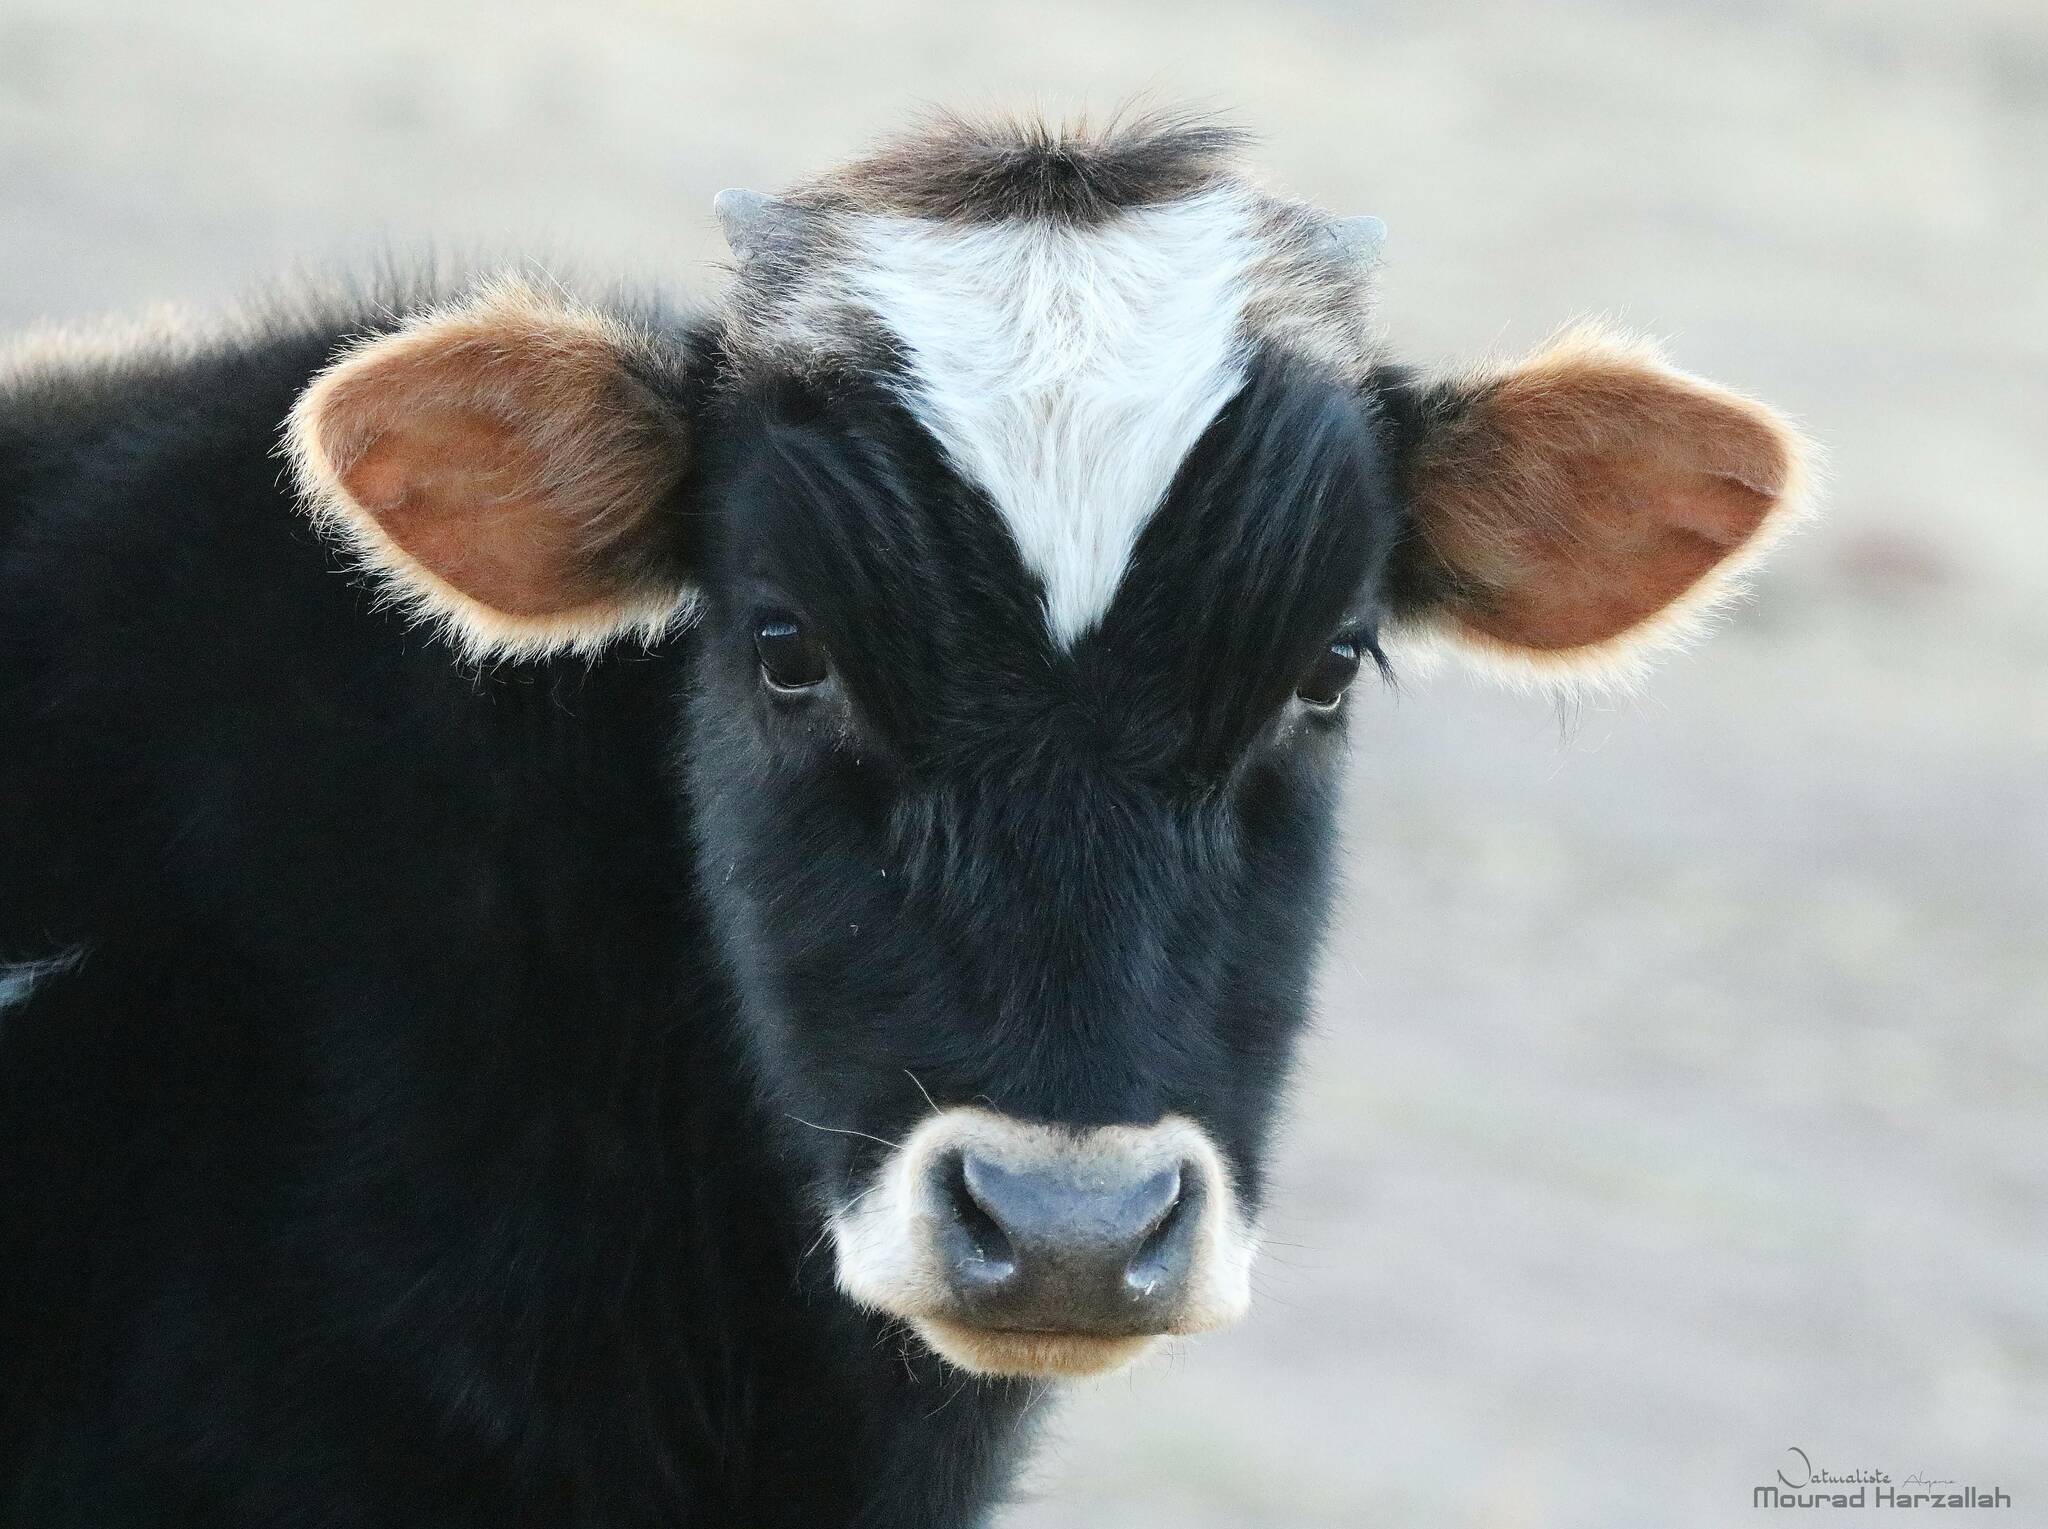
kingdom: Animalia
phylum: Chordata
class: Mammalia
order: Artiodactyla
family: Bovidae
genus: Bos
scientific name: Bos taurus
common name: Domesticated cattle
